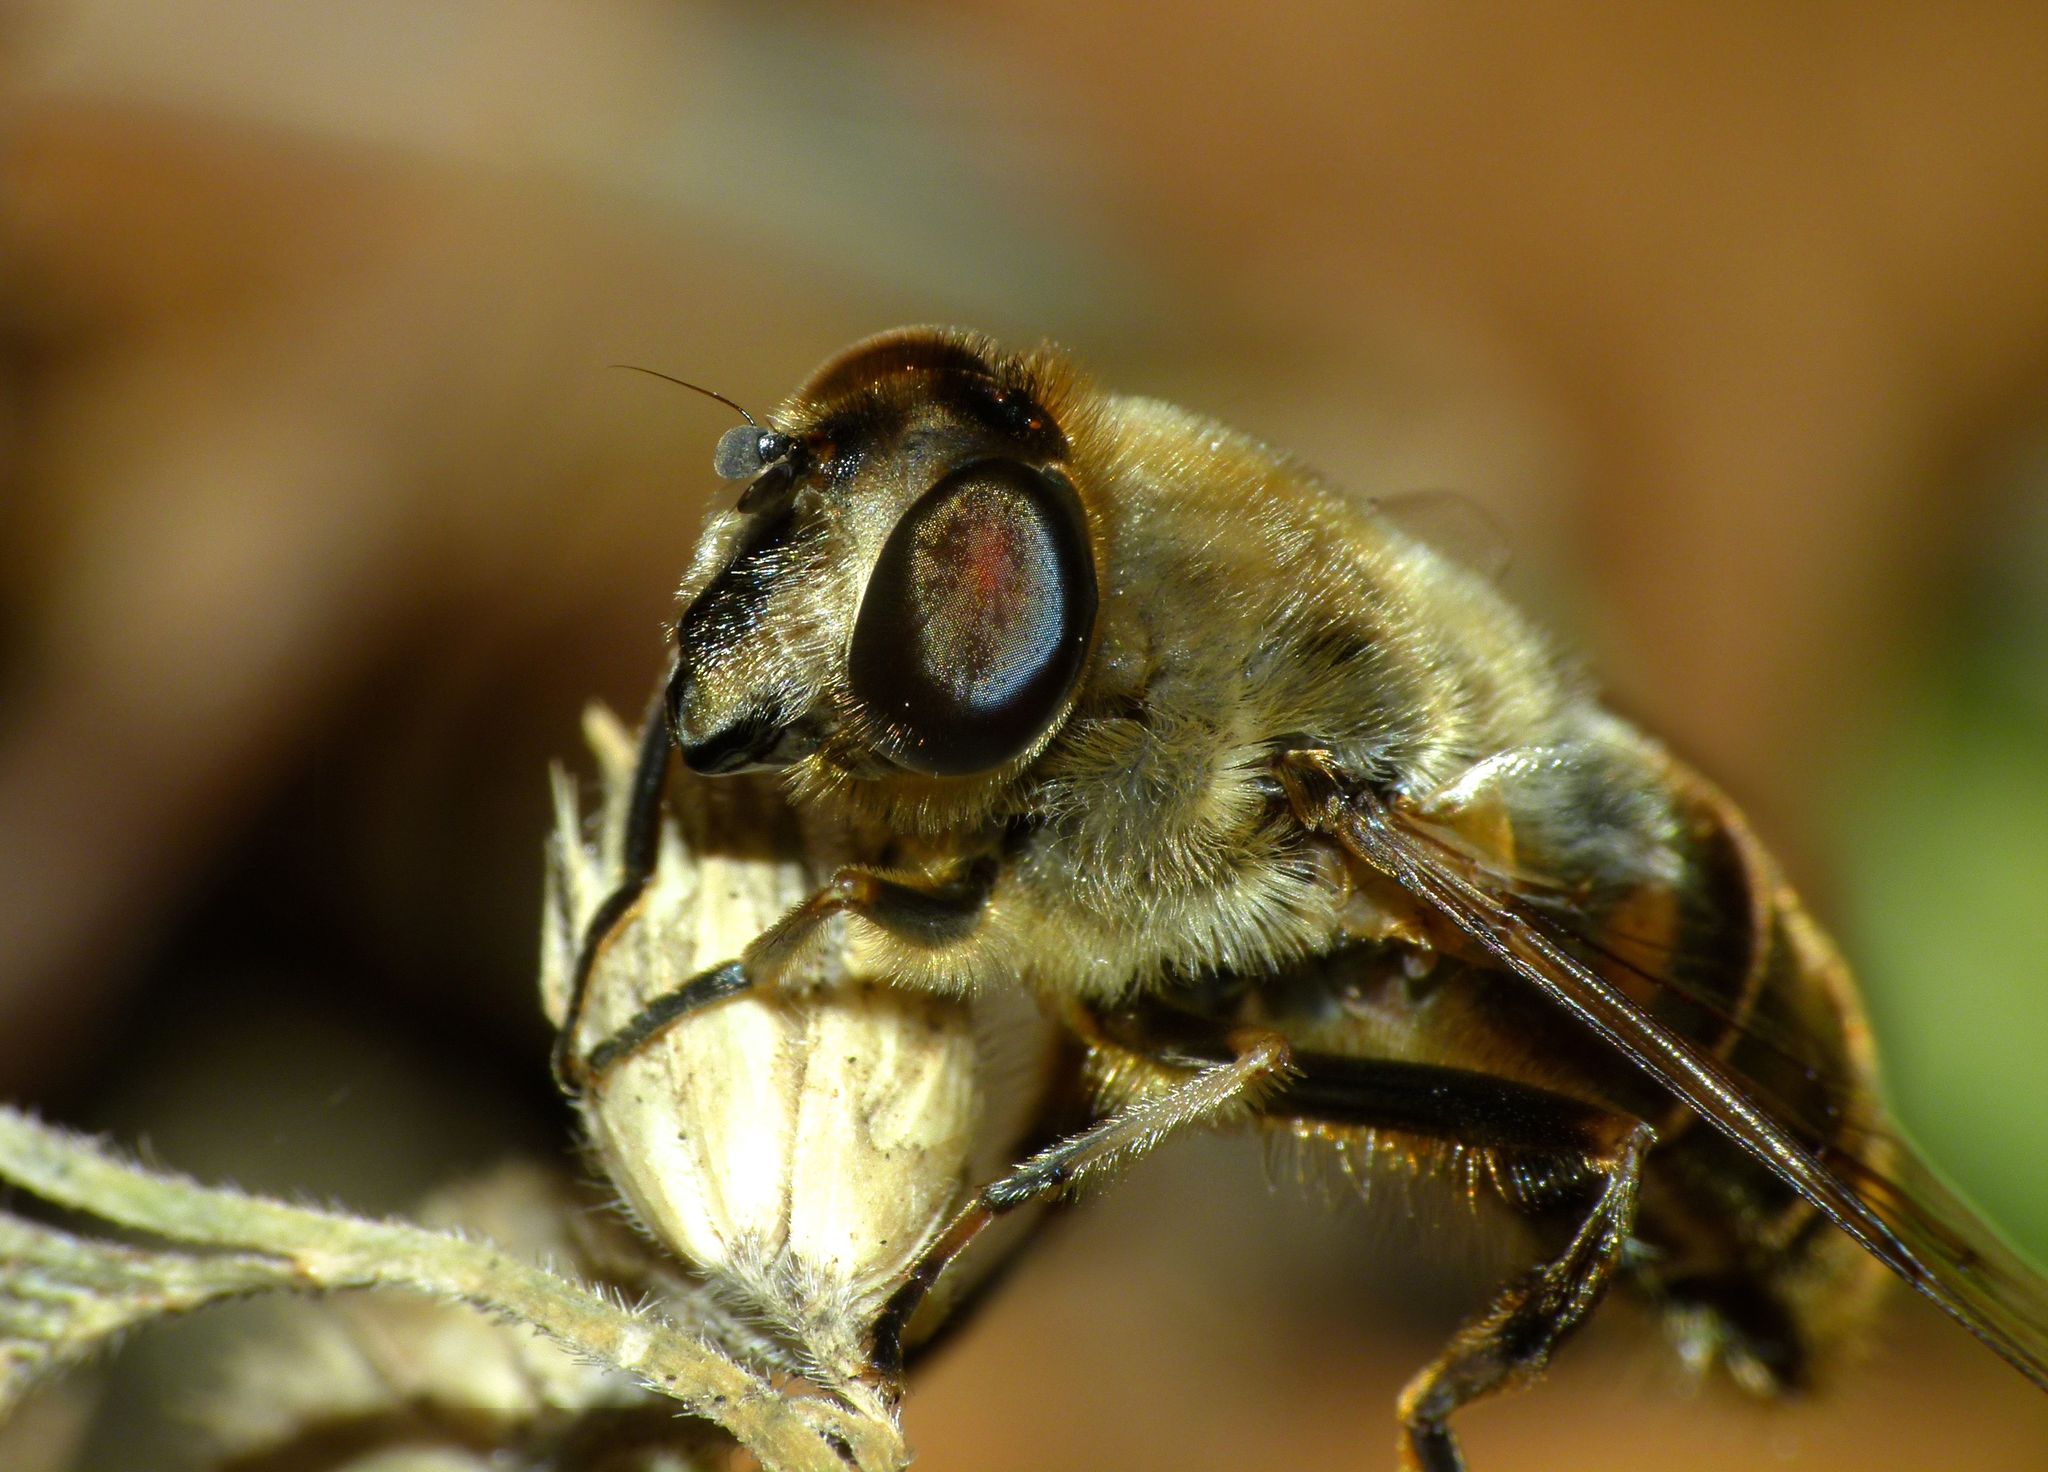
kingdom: Animalia
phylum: Arthropoda
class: Insecta
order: Diptera
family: Syrphidae
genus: Eristalis
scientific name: Eristalis tenax
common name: Drone fly
